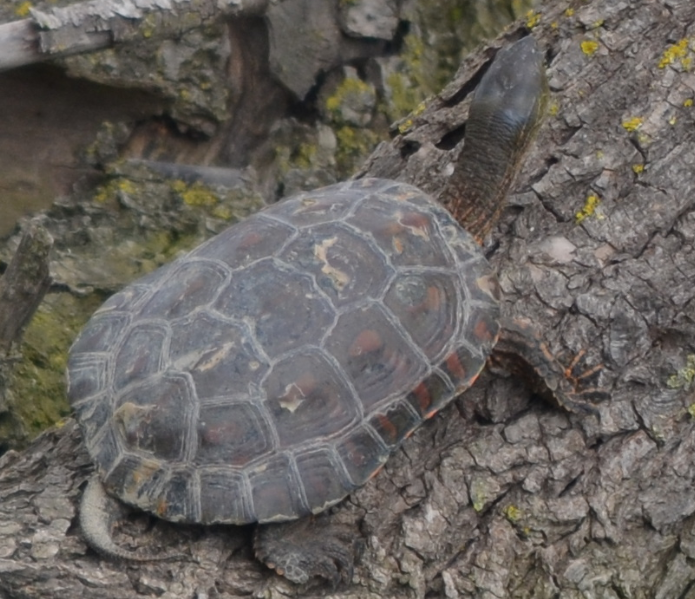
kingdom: Animalia
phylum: Chordata
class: Testudines
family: Geoemydidae
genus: Mauremys
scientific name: Mauremys leprosa
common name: Mediterranean pond turtle
